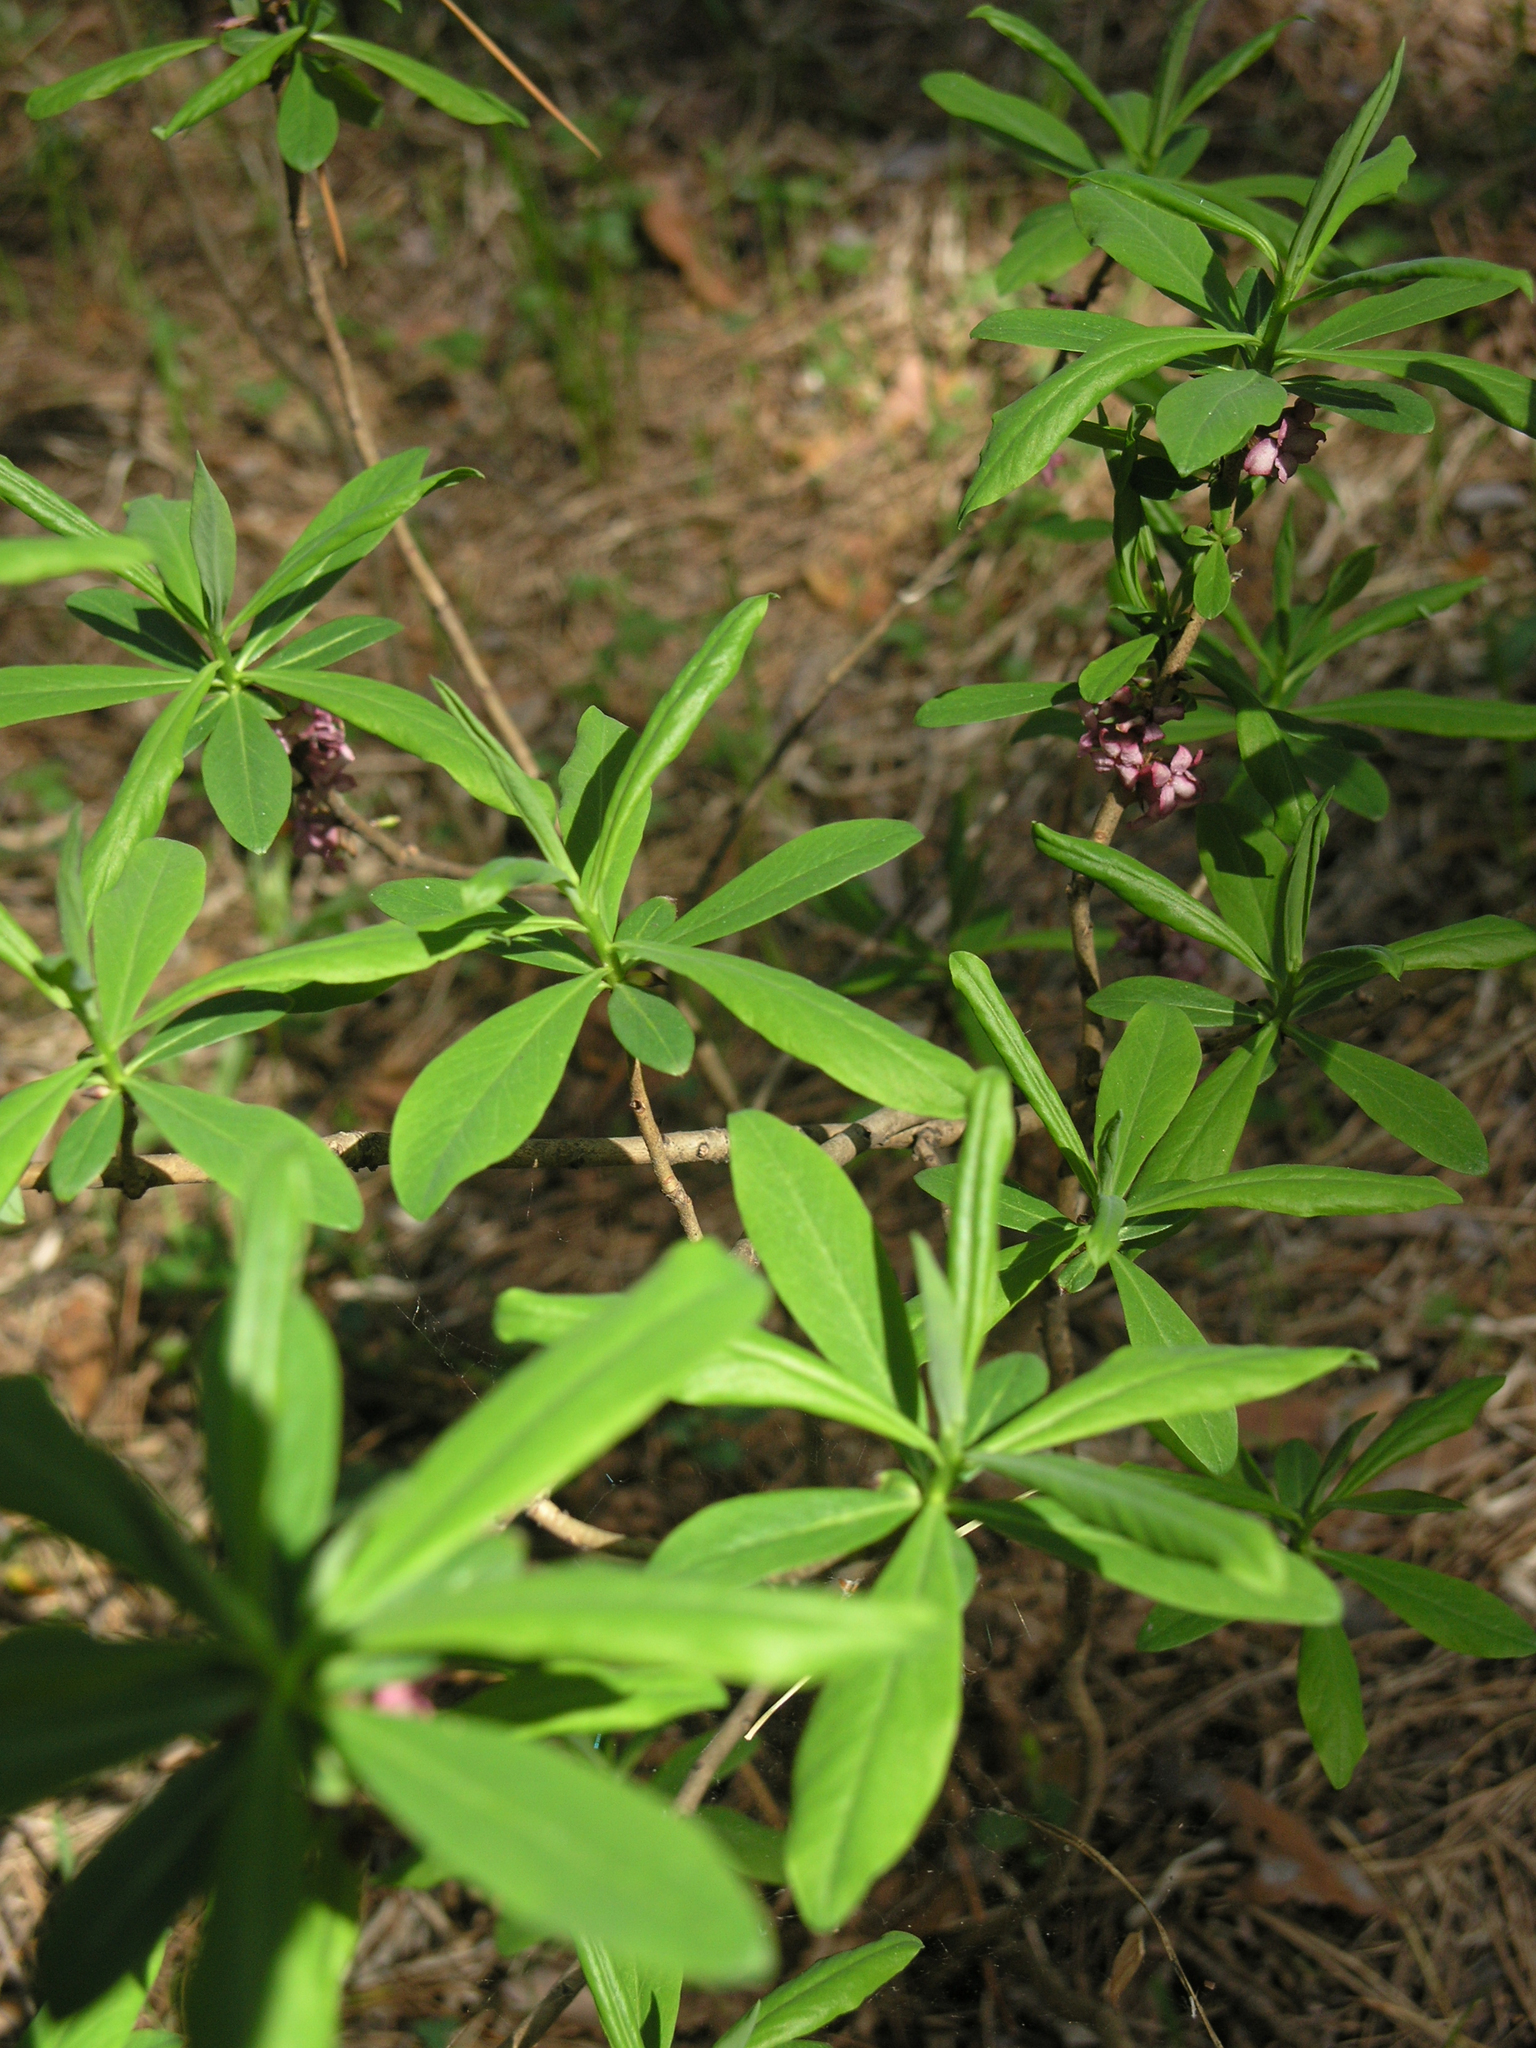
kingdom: Plantae
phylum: Tracheophyta
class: Magnoliopsida
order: Malvales
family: Thymelaeaceae
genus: Daphne
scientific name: Daphne mezereum
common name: Mezereon
